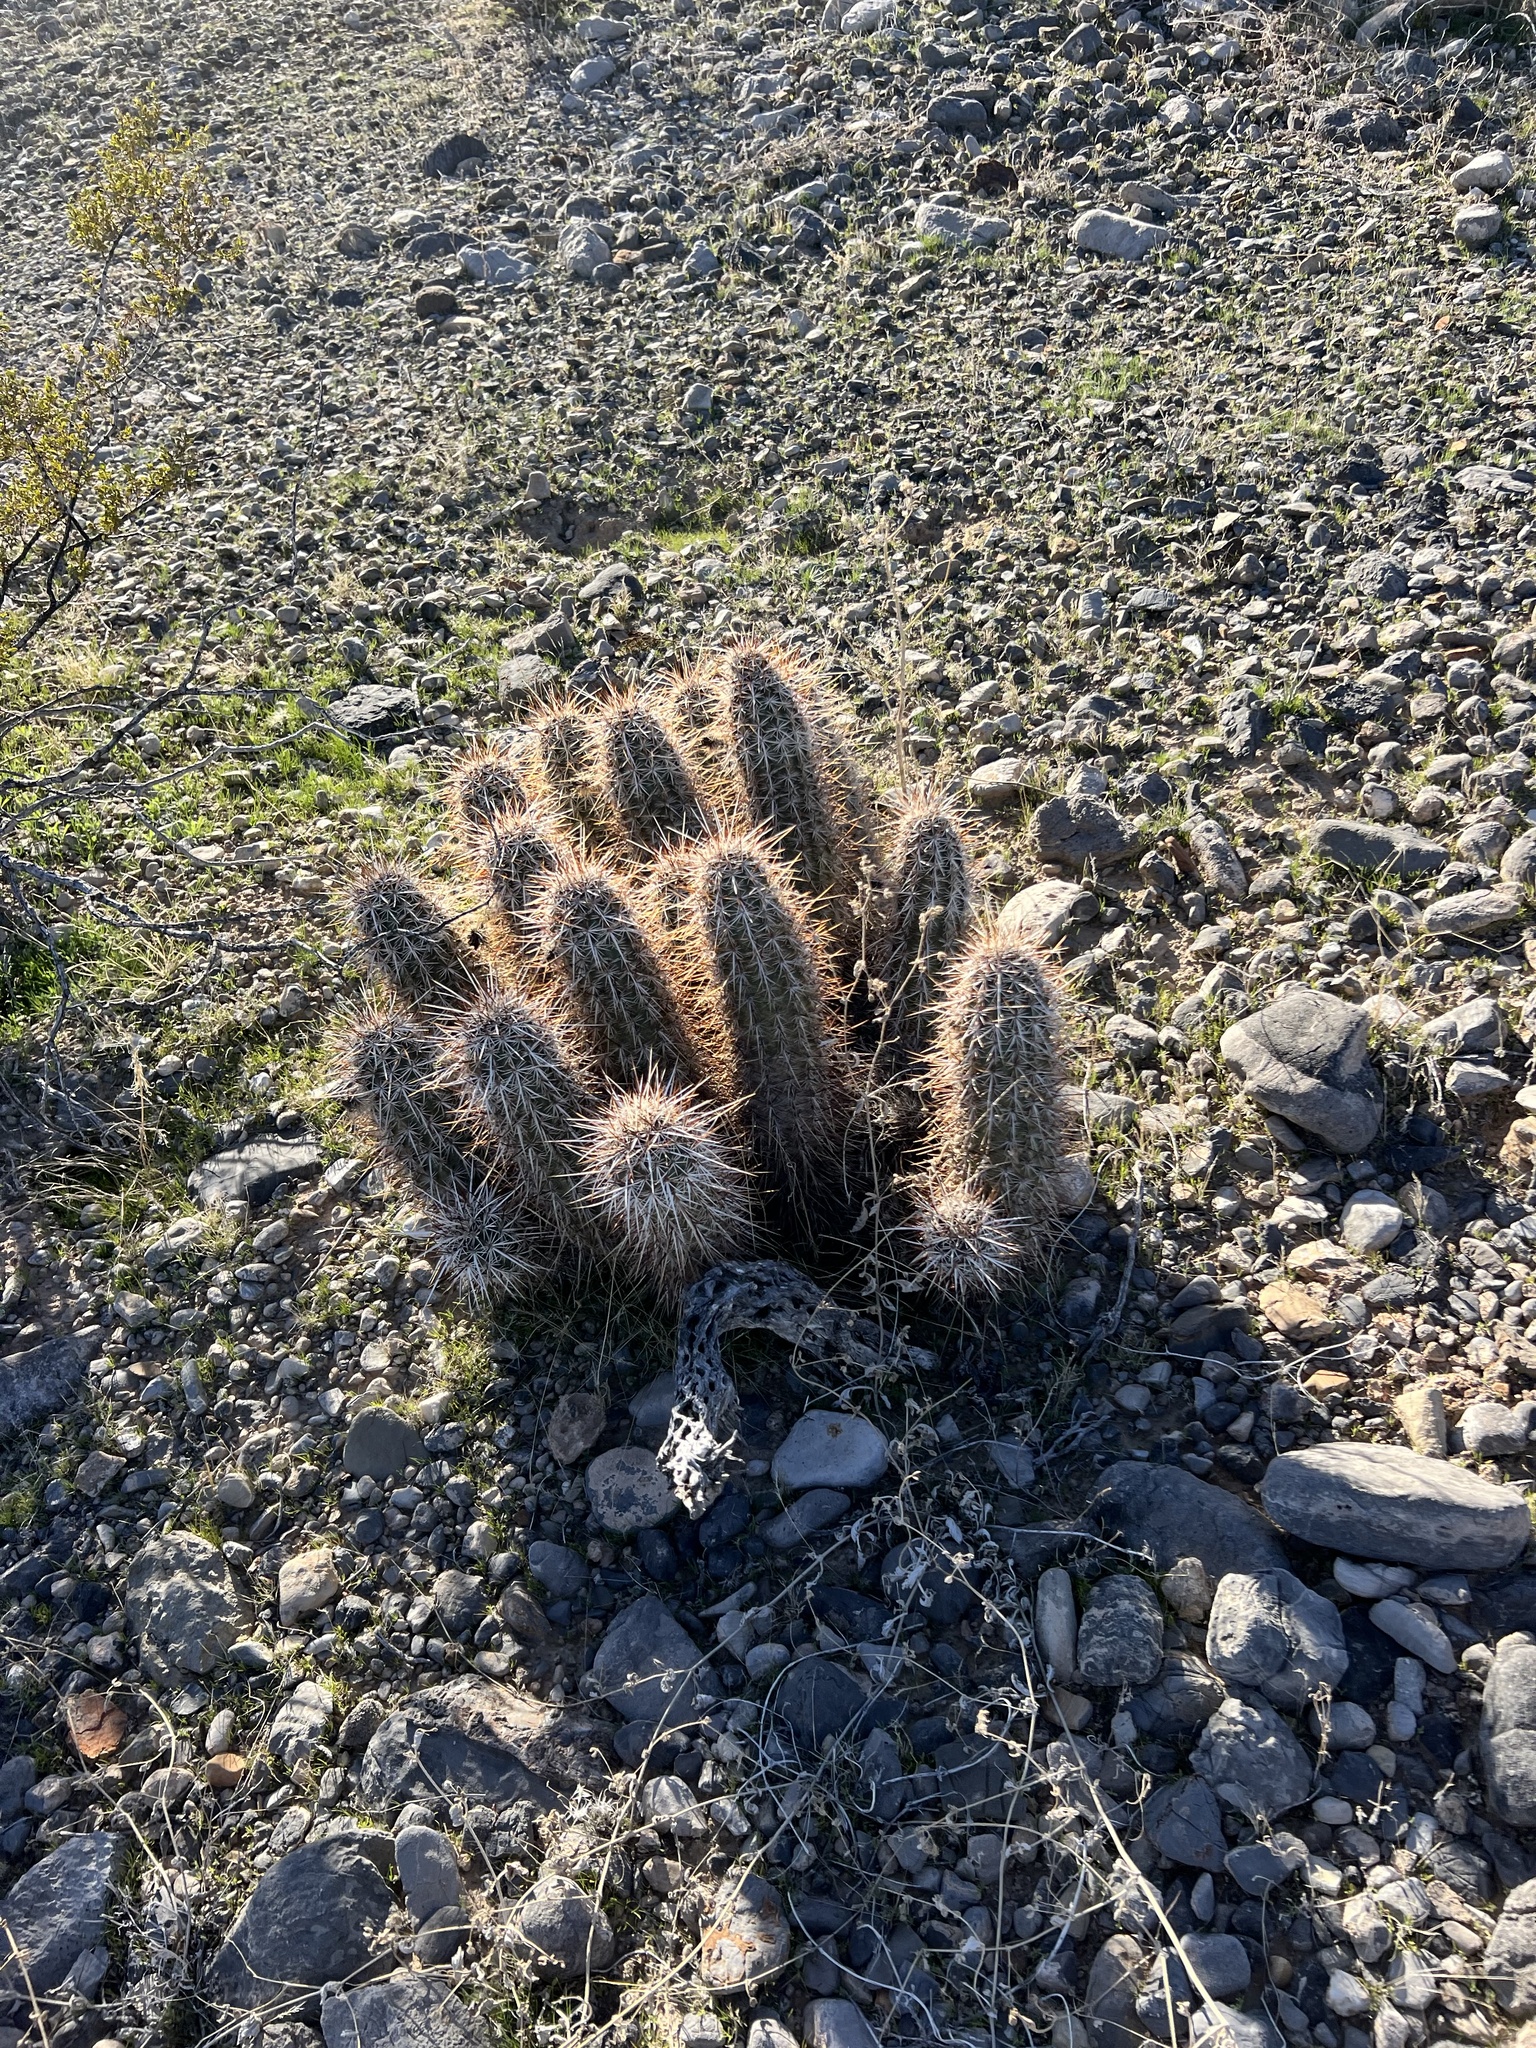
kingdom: Plantae
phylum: Tracheophyta
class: Magnoliopsida
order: Caryophyllales
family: Cactaceae
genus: Echinocereus
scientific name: Echinocereus engelmannii
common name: Engelmann's hedgehog cactus
